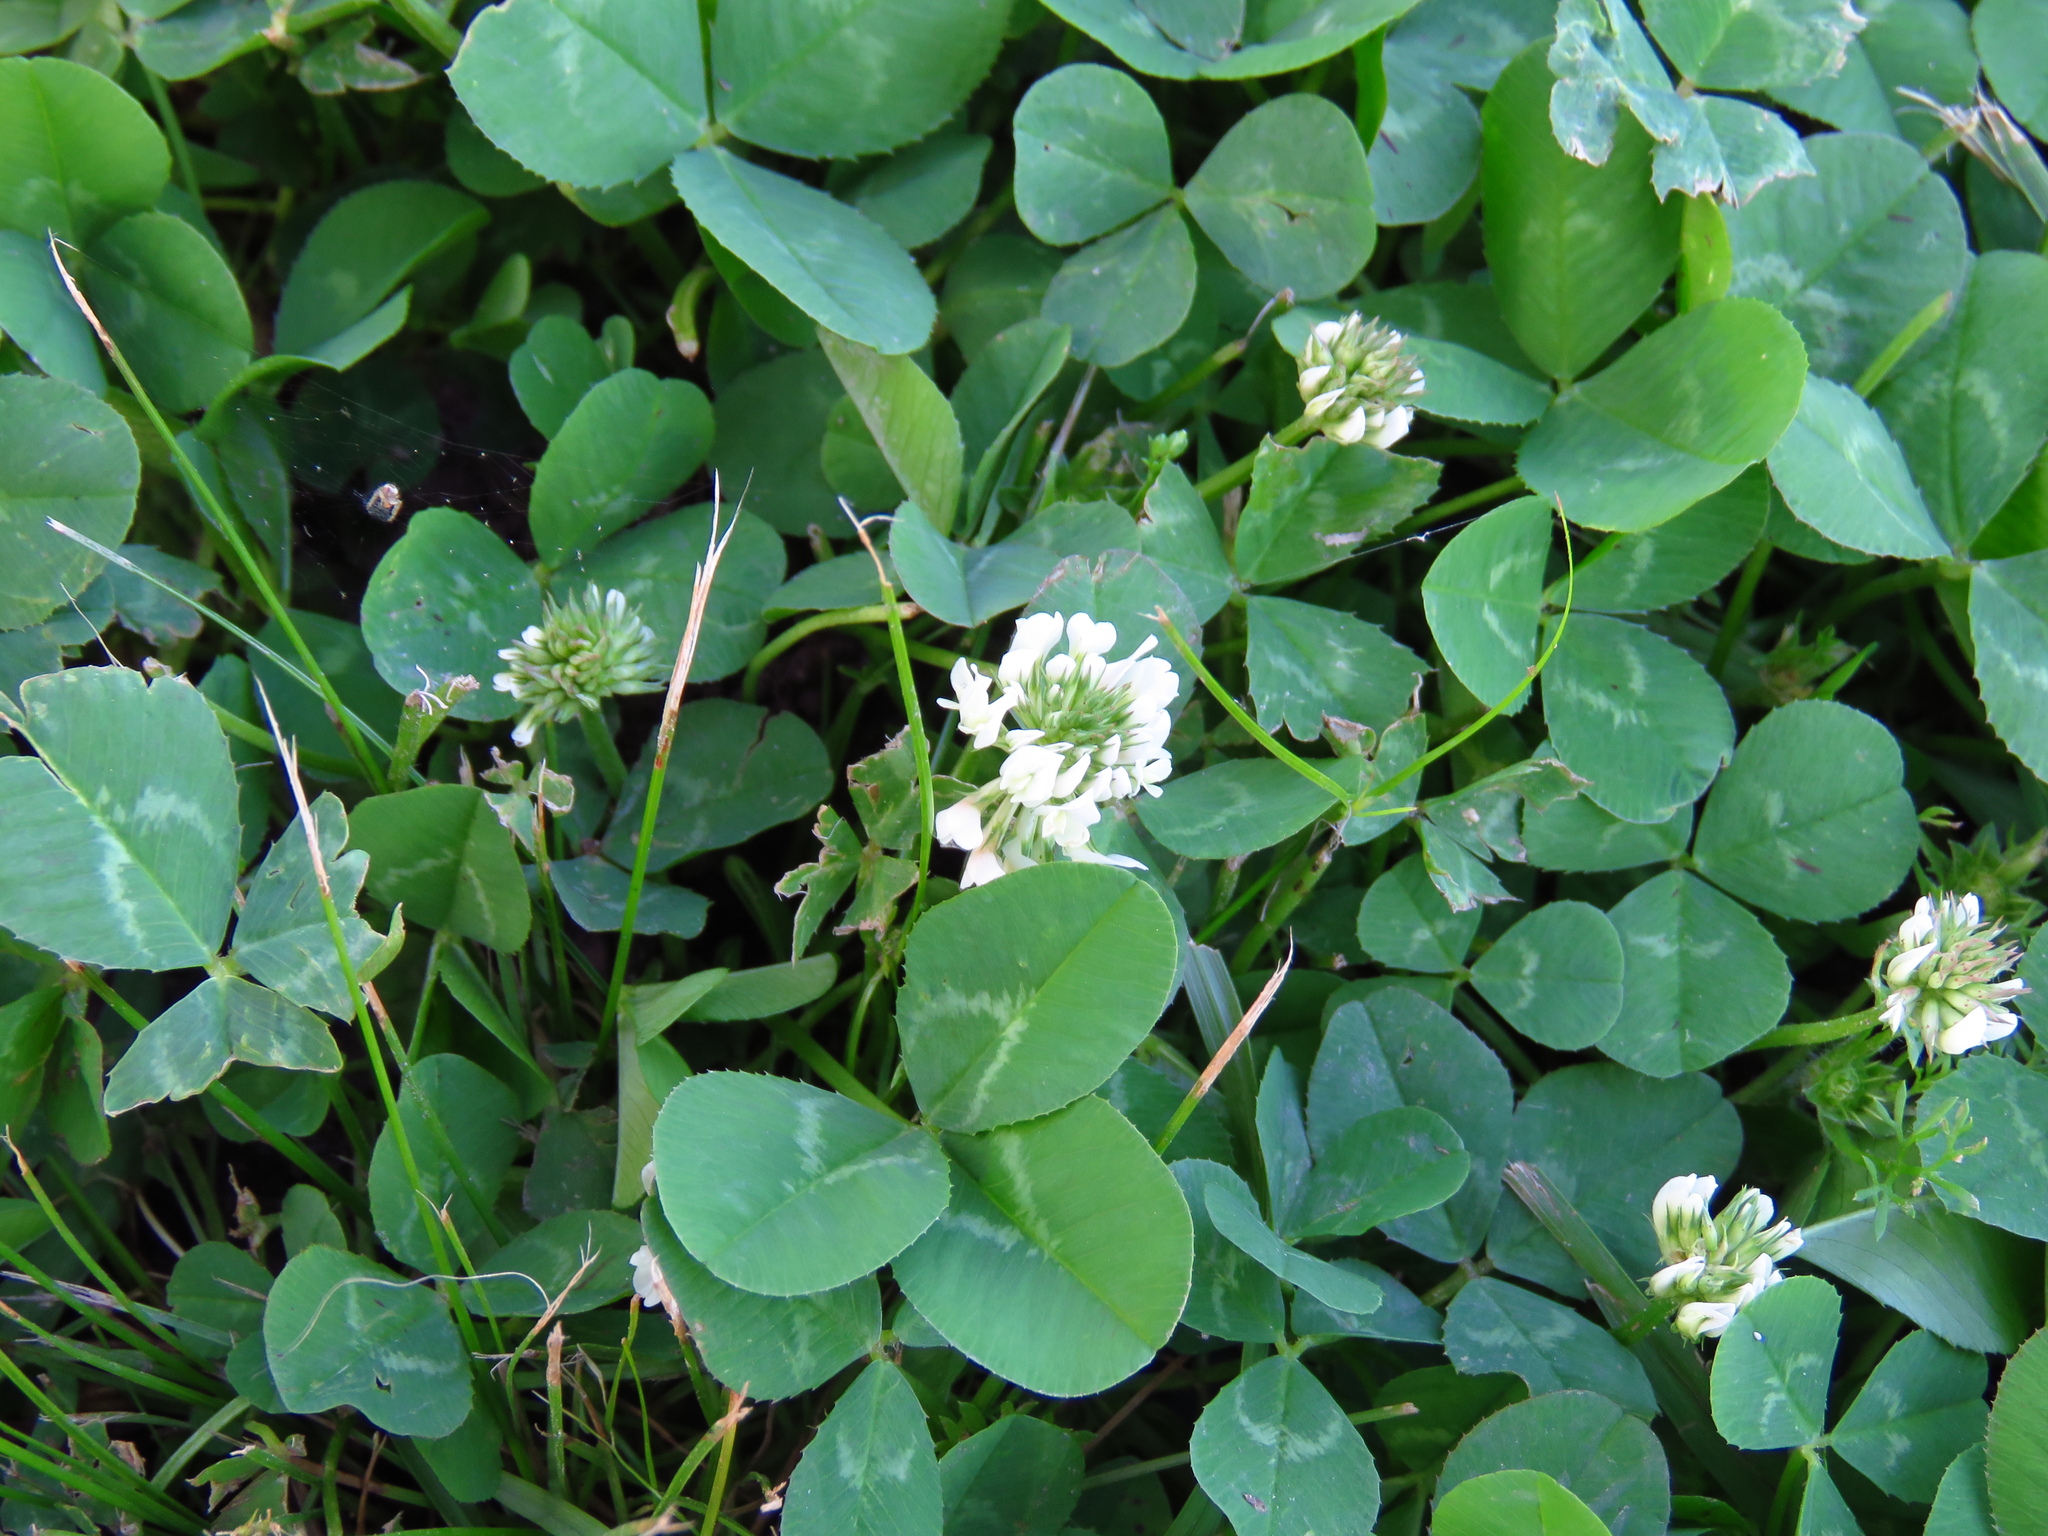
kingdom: Plantae
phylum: Tracheophyta
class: Magnoliopsida
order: Fabales
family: Fabaceae
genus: Trifolium
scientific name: Trifolium repens
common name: White clover
